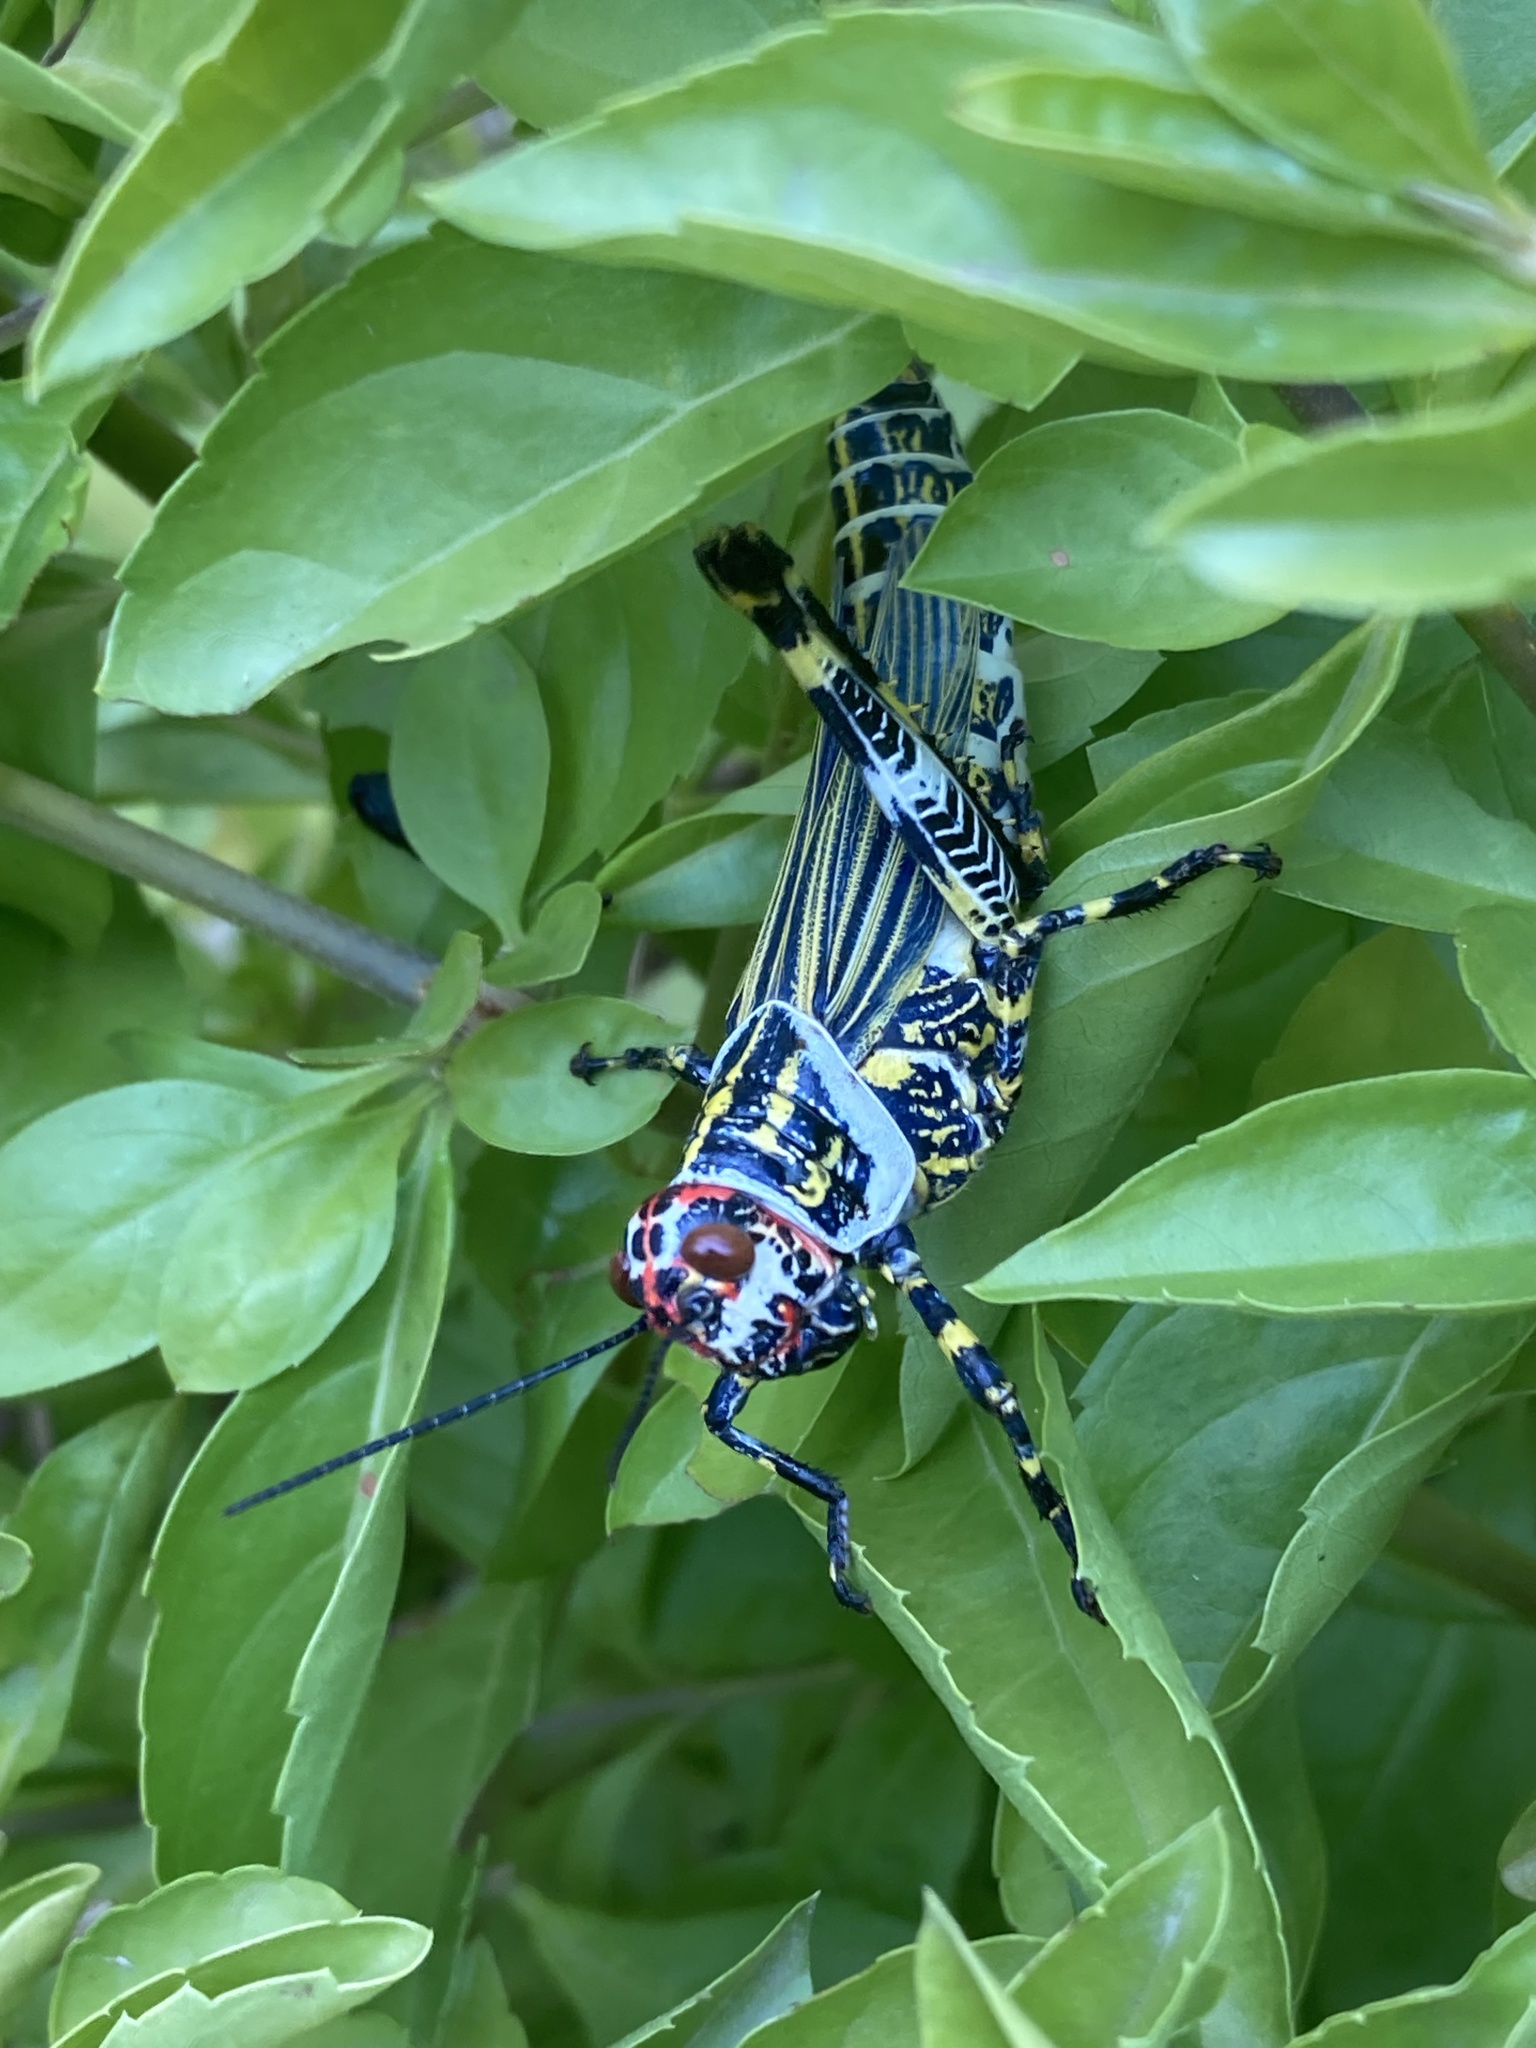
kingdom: Animalia
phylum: Arthropoda
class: Insecta
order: Orthoptera
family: Romaleidae
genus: Zoniopoda
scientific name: Zoniopoda omnicolor
